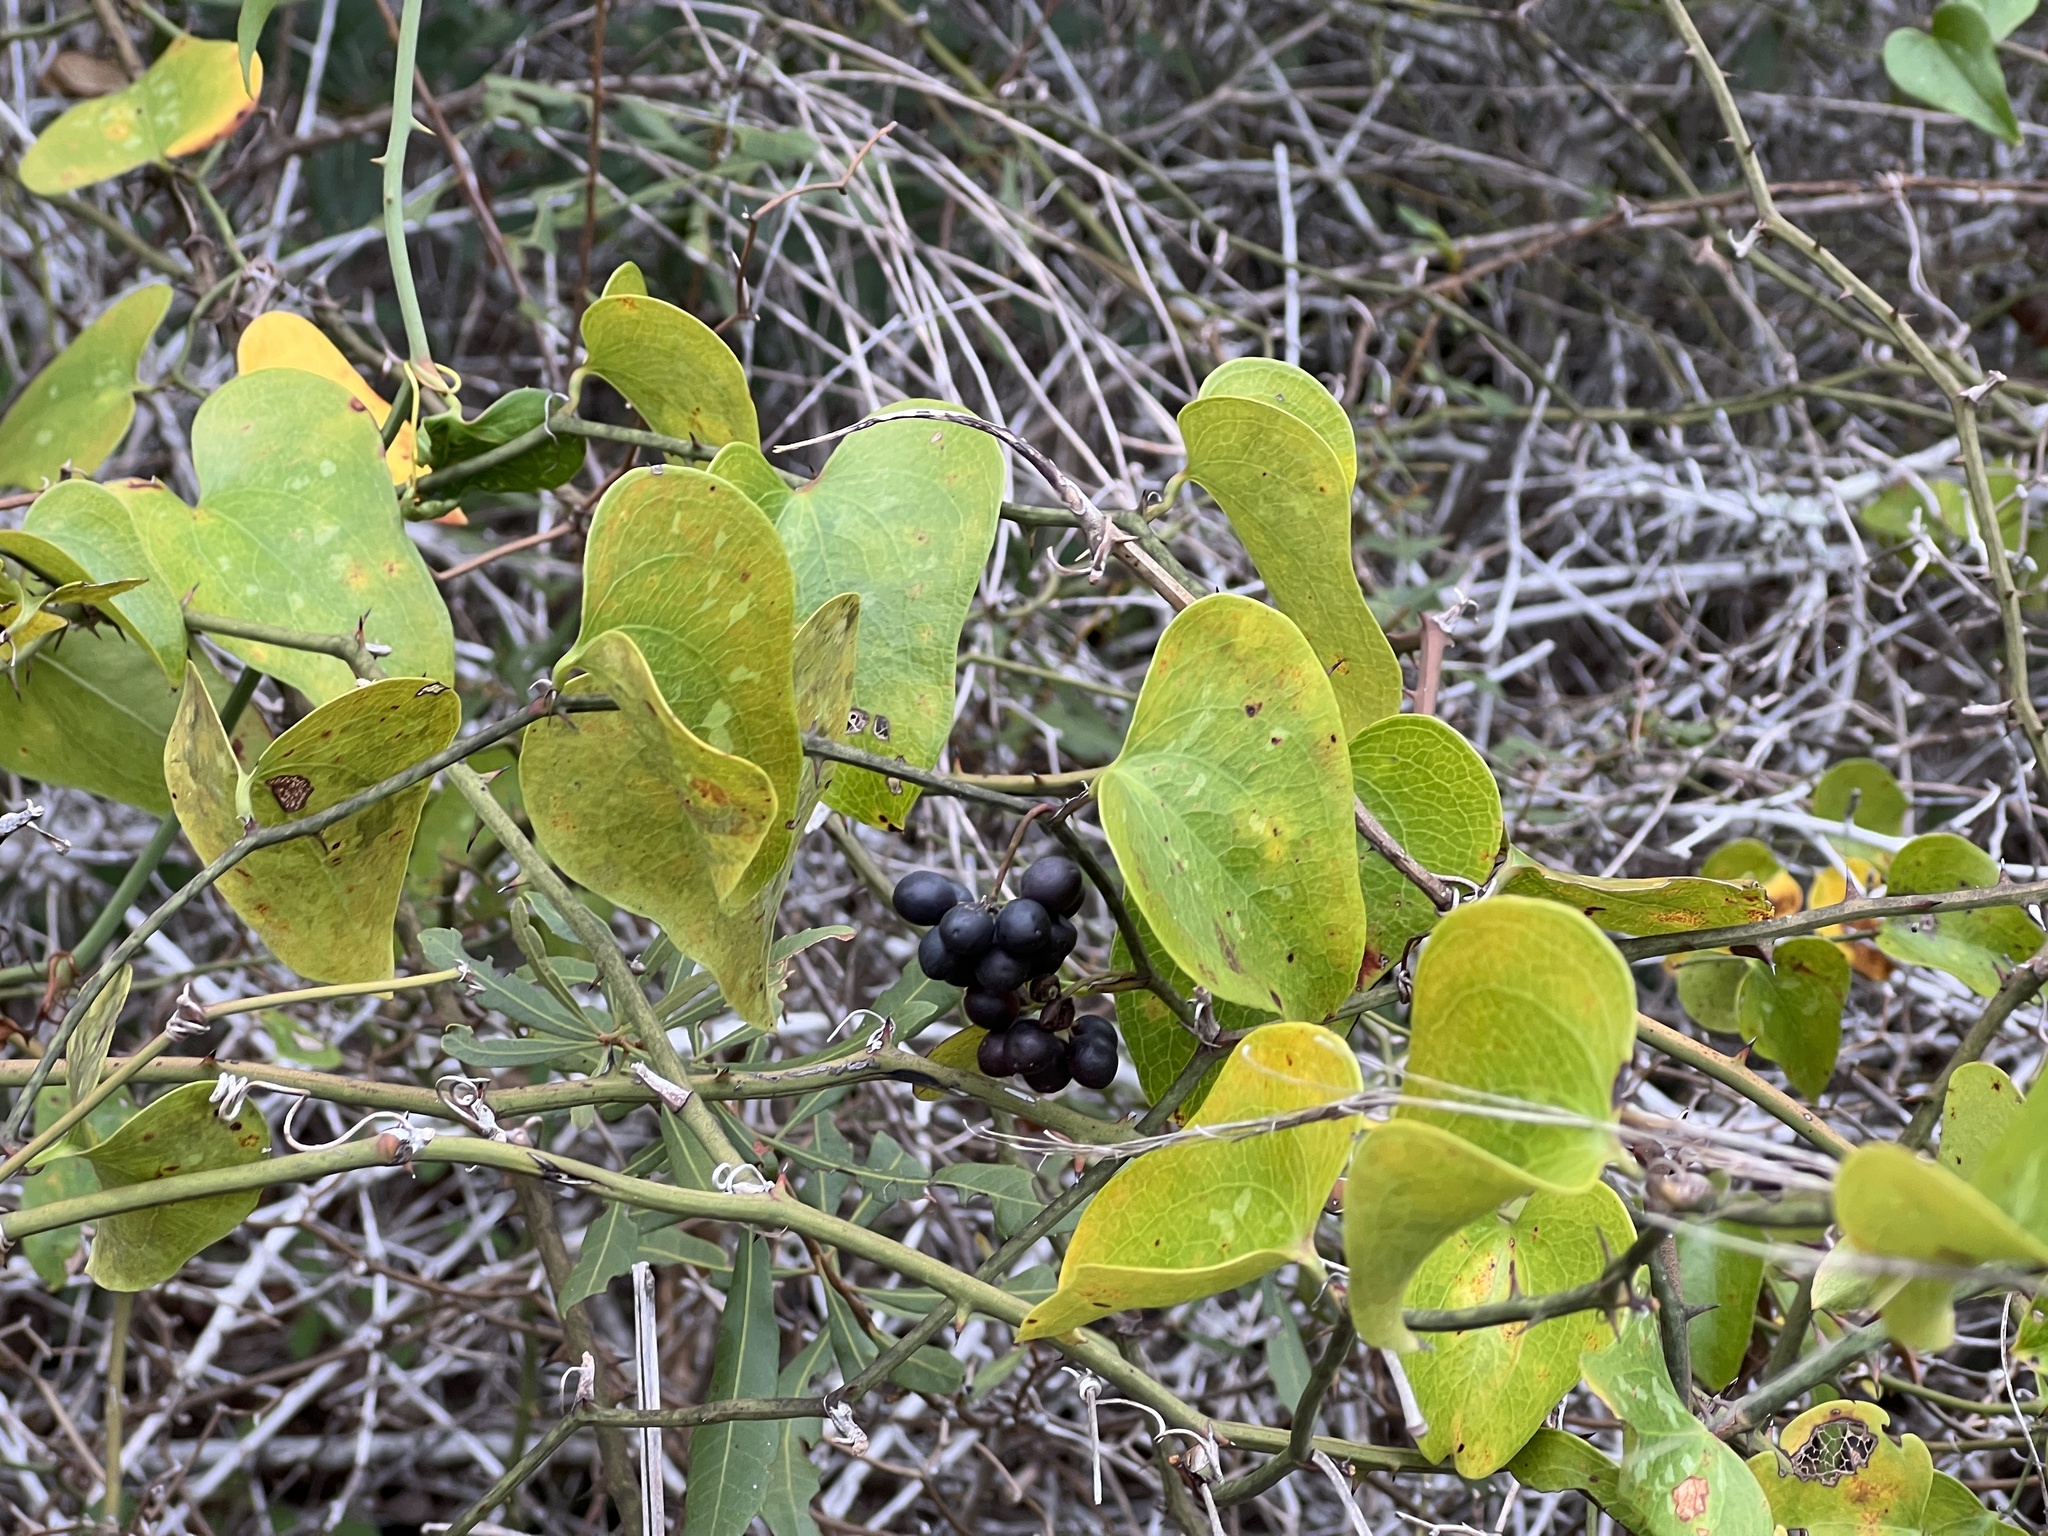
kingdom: Plantae
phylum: Tracheophyta
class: Liliopsida
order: Liliales
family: Smilacaceae
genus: Smilax
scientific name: Smilax bona-nox
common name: Catbrier
